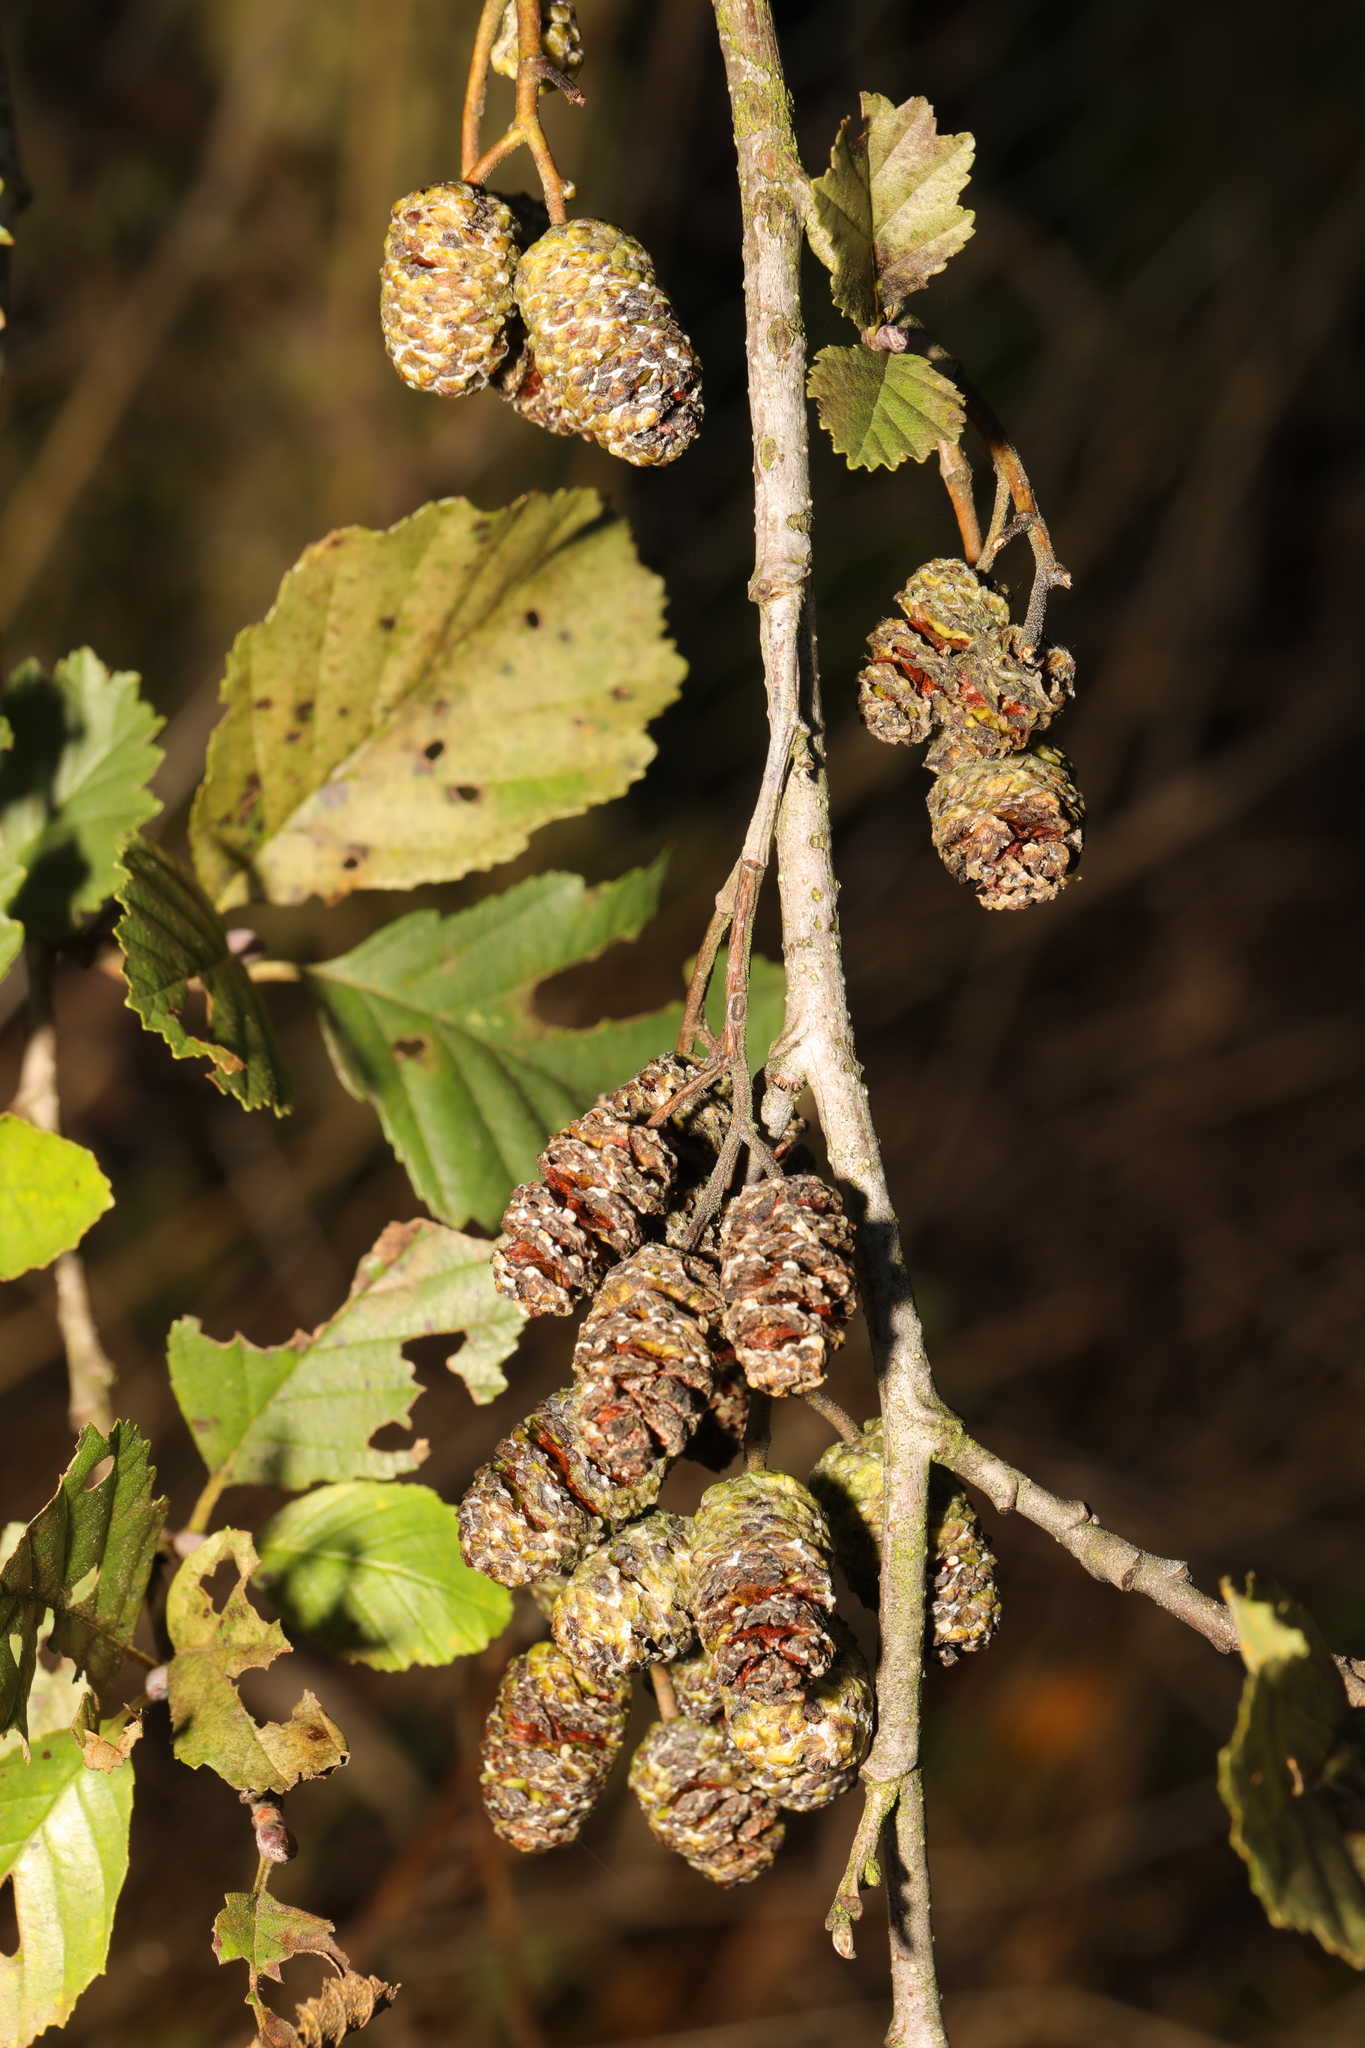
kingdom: Plantae
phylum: Tracheophyta
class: Magnoliopsida
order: Fagales
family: Betulaceae
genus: Alnus
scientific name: Alnus incana
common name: Grey alder
